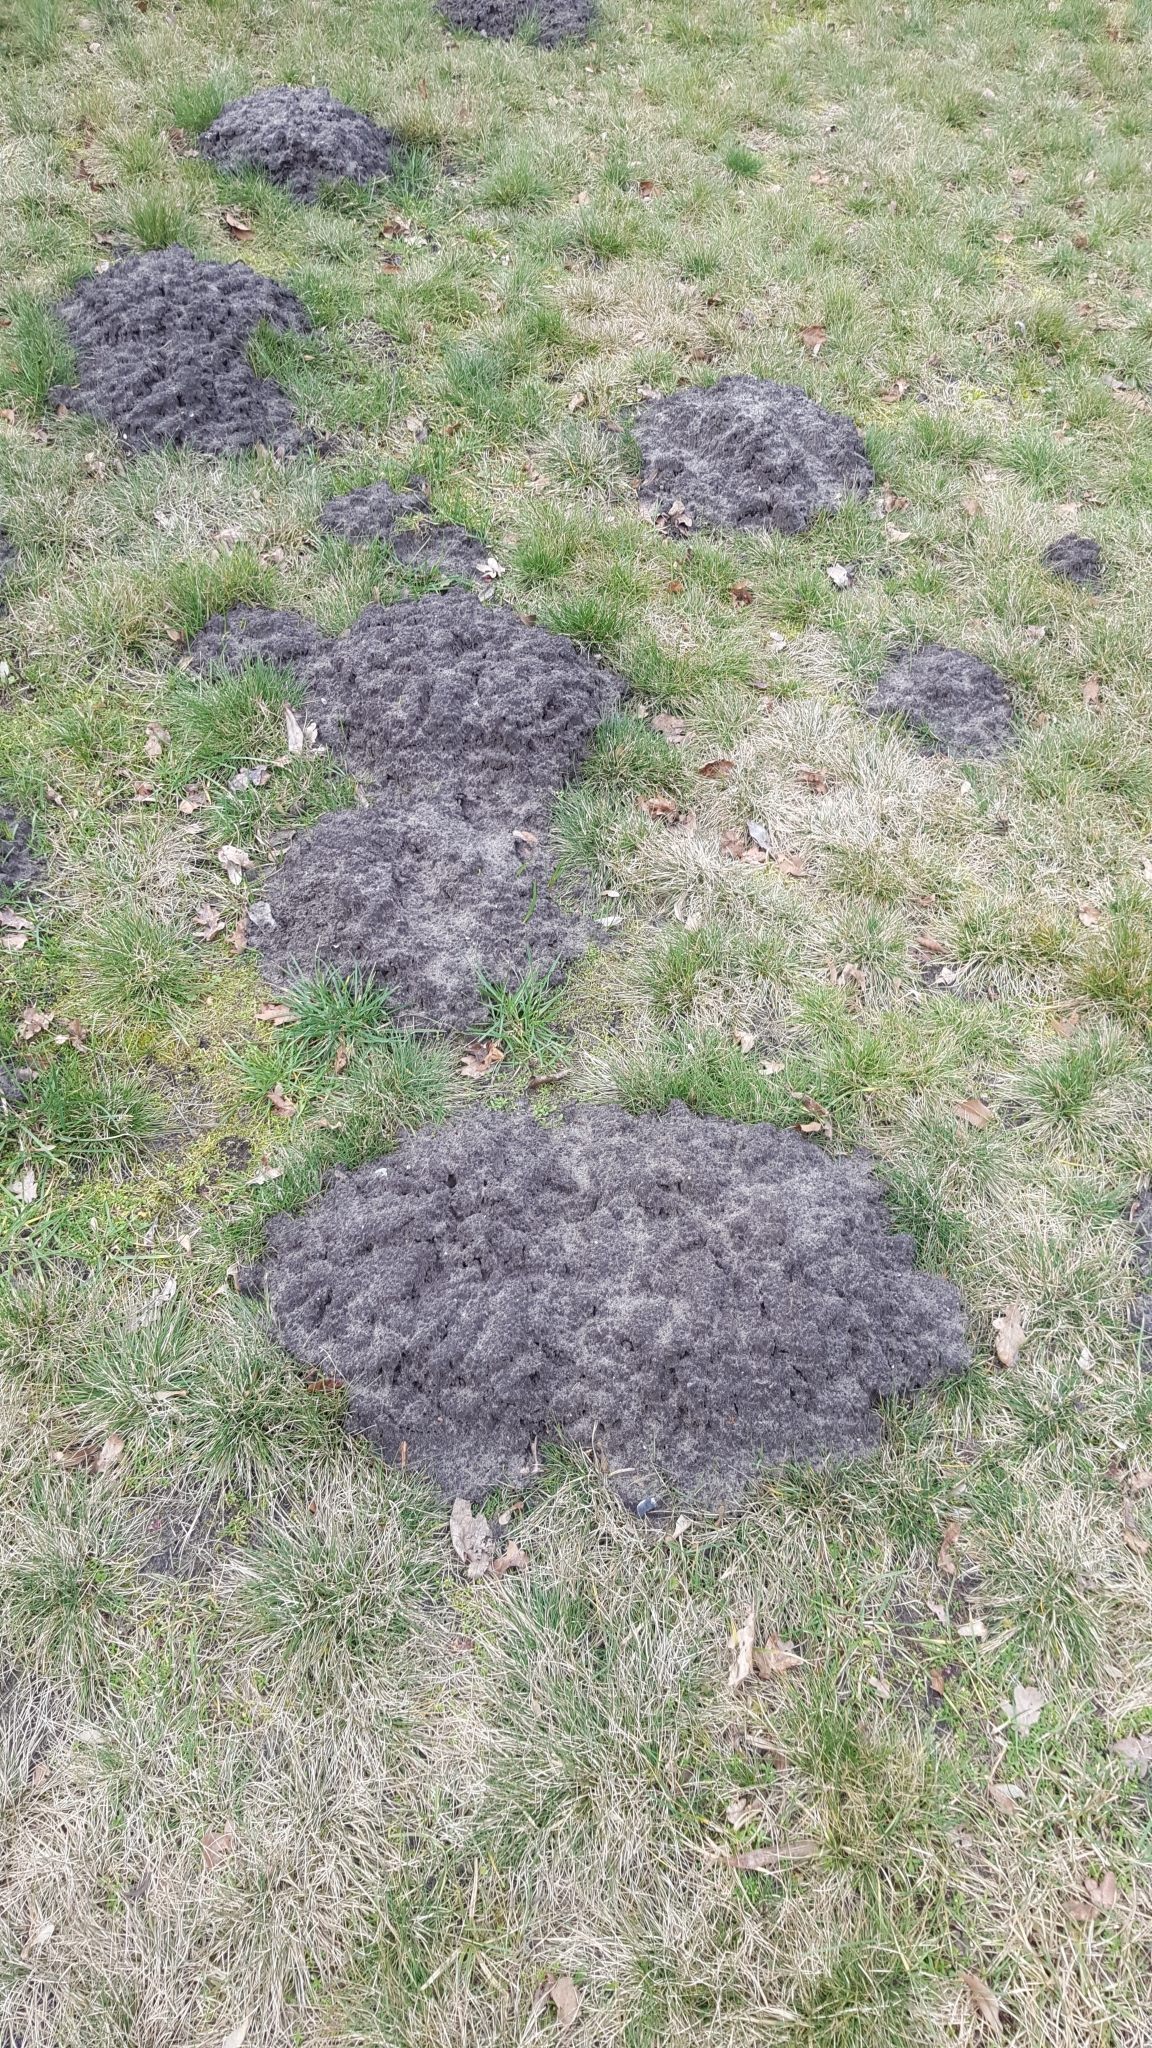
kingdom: Animalia
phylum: Chordata
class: Mammalia
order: Soricomorpha
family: Talpidae
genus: Talpa
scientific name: Talpa europaea
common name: European mole
